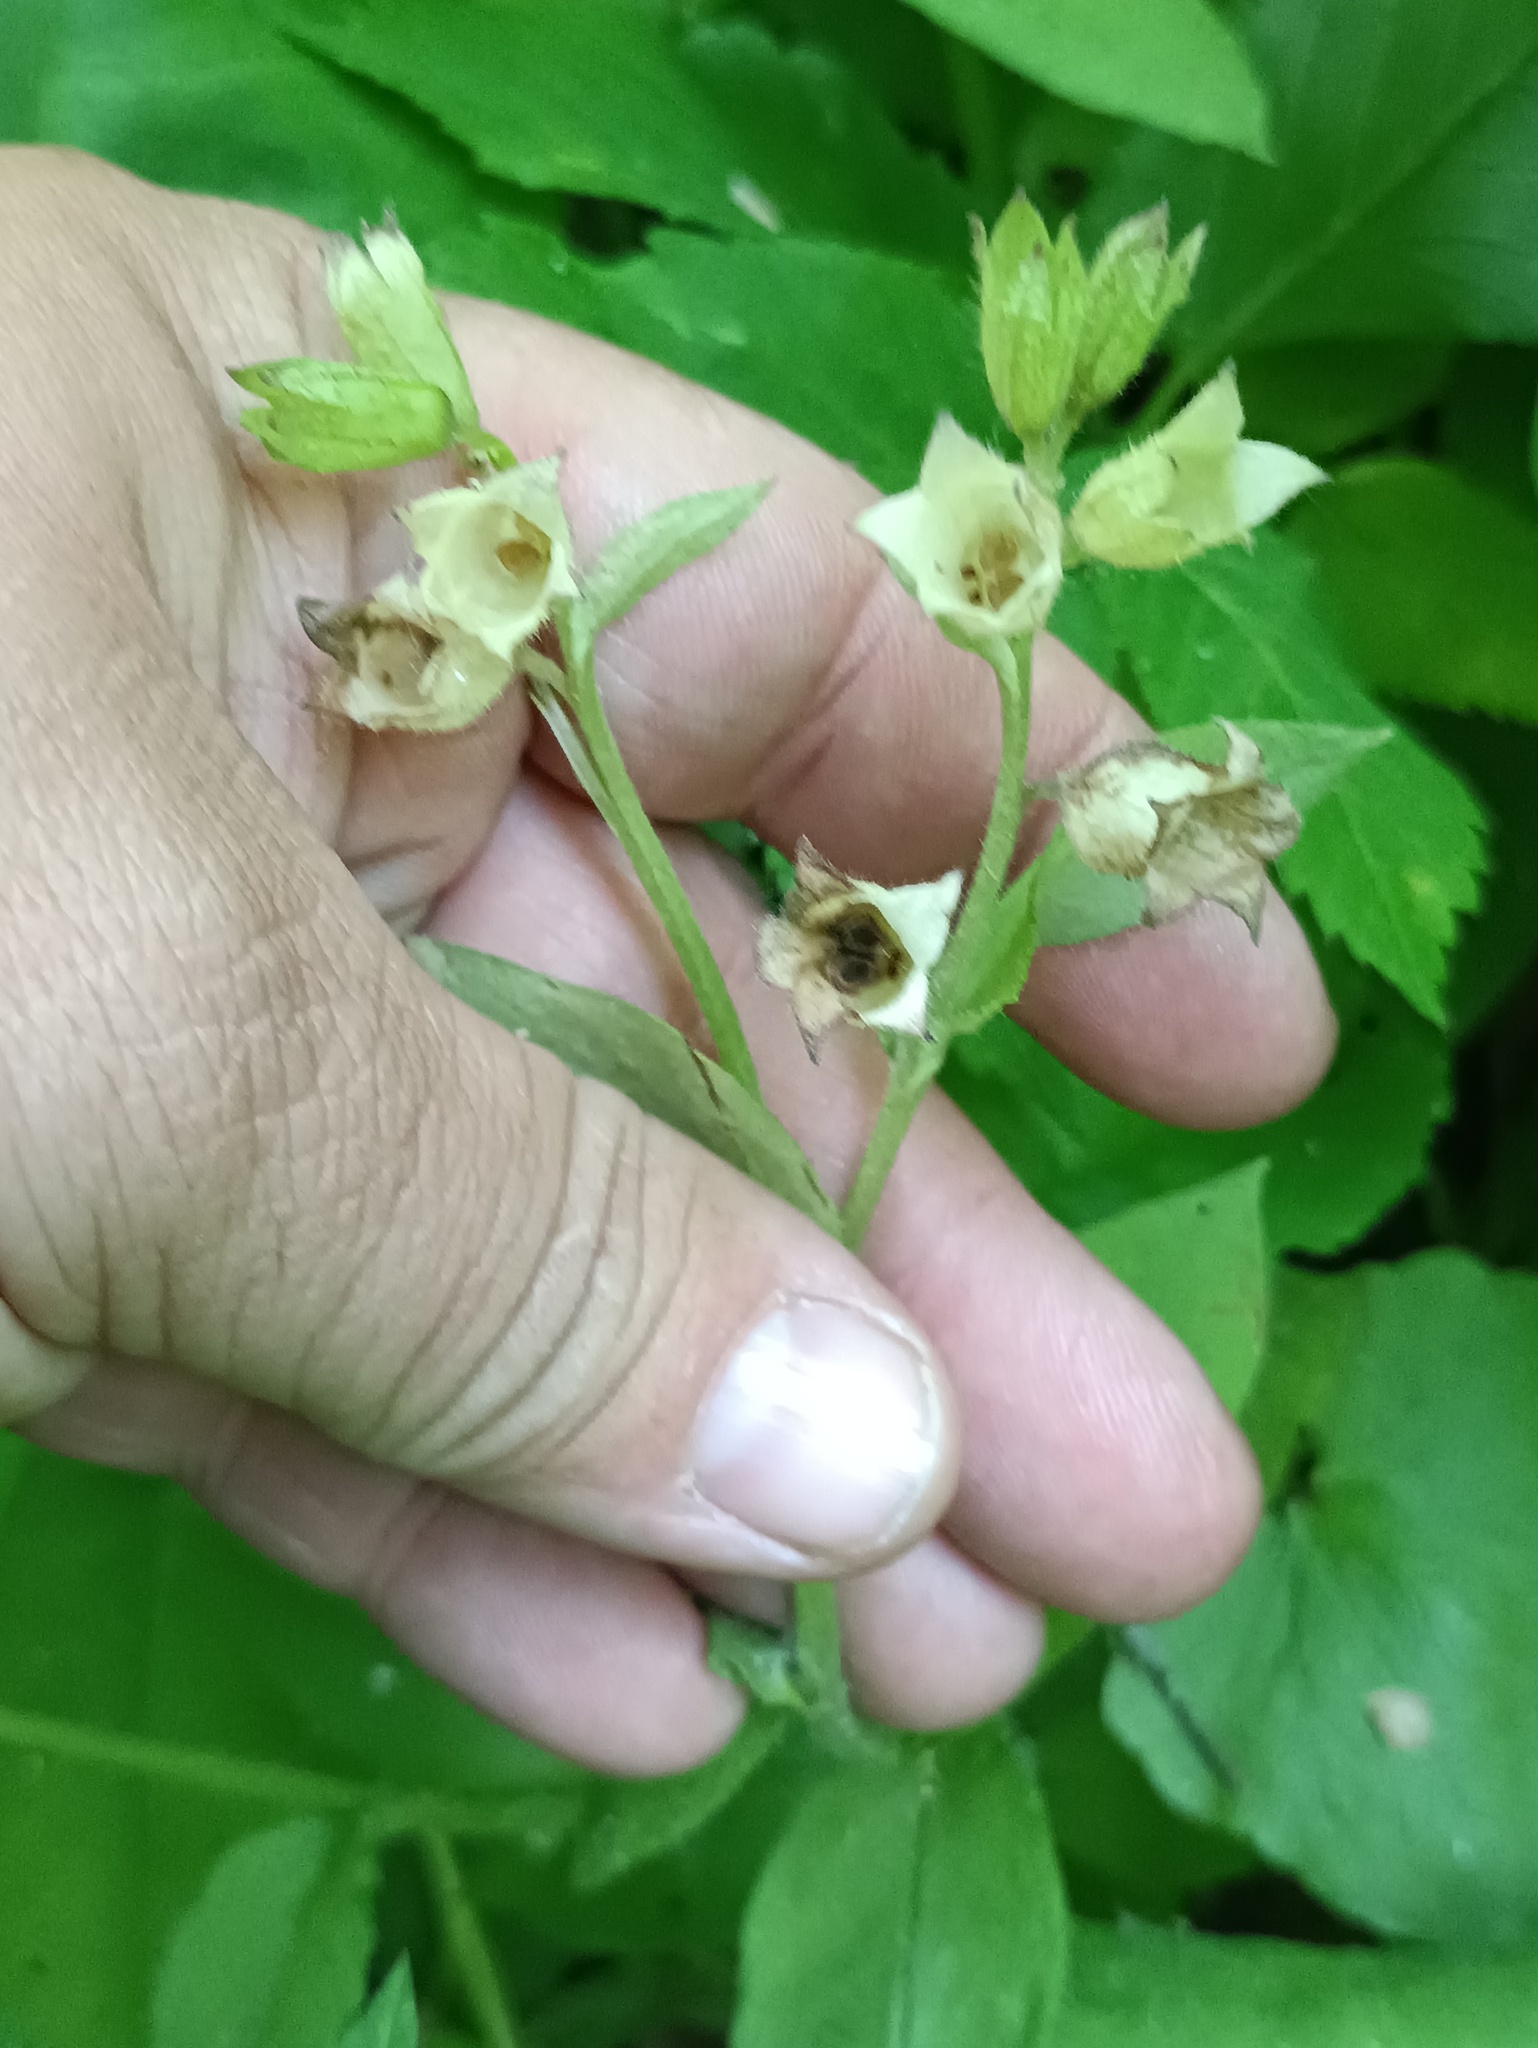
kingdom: Plantae
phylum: Tracheophyta
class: Magnoliopsida
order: Boraginales
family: Boraginaceae
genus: Pulmonaria
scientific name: Pulmonaria obscura
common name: Suffolk lungwort
